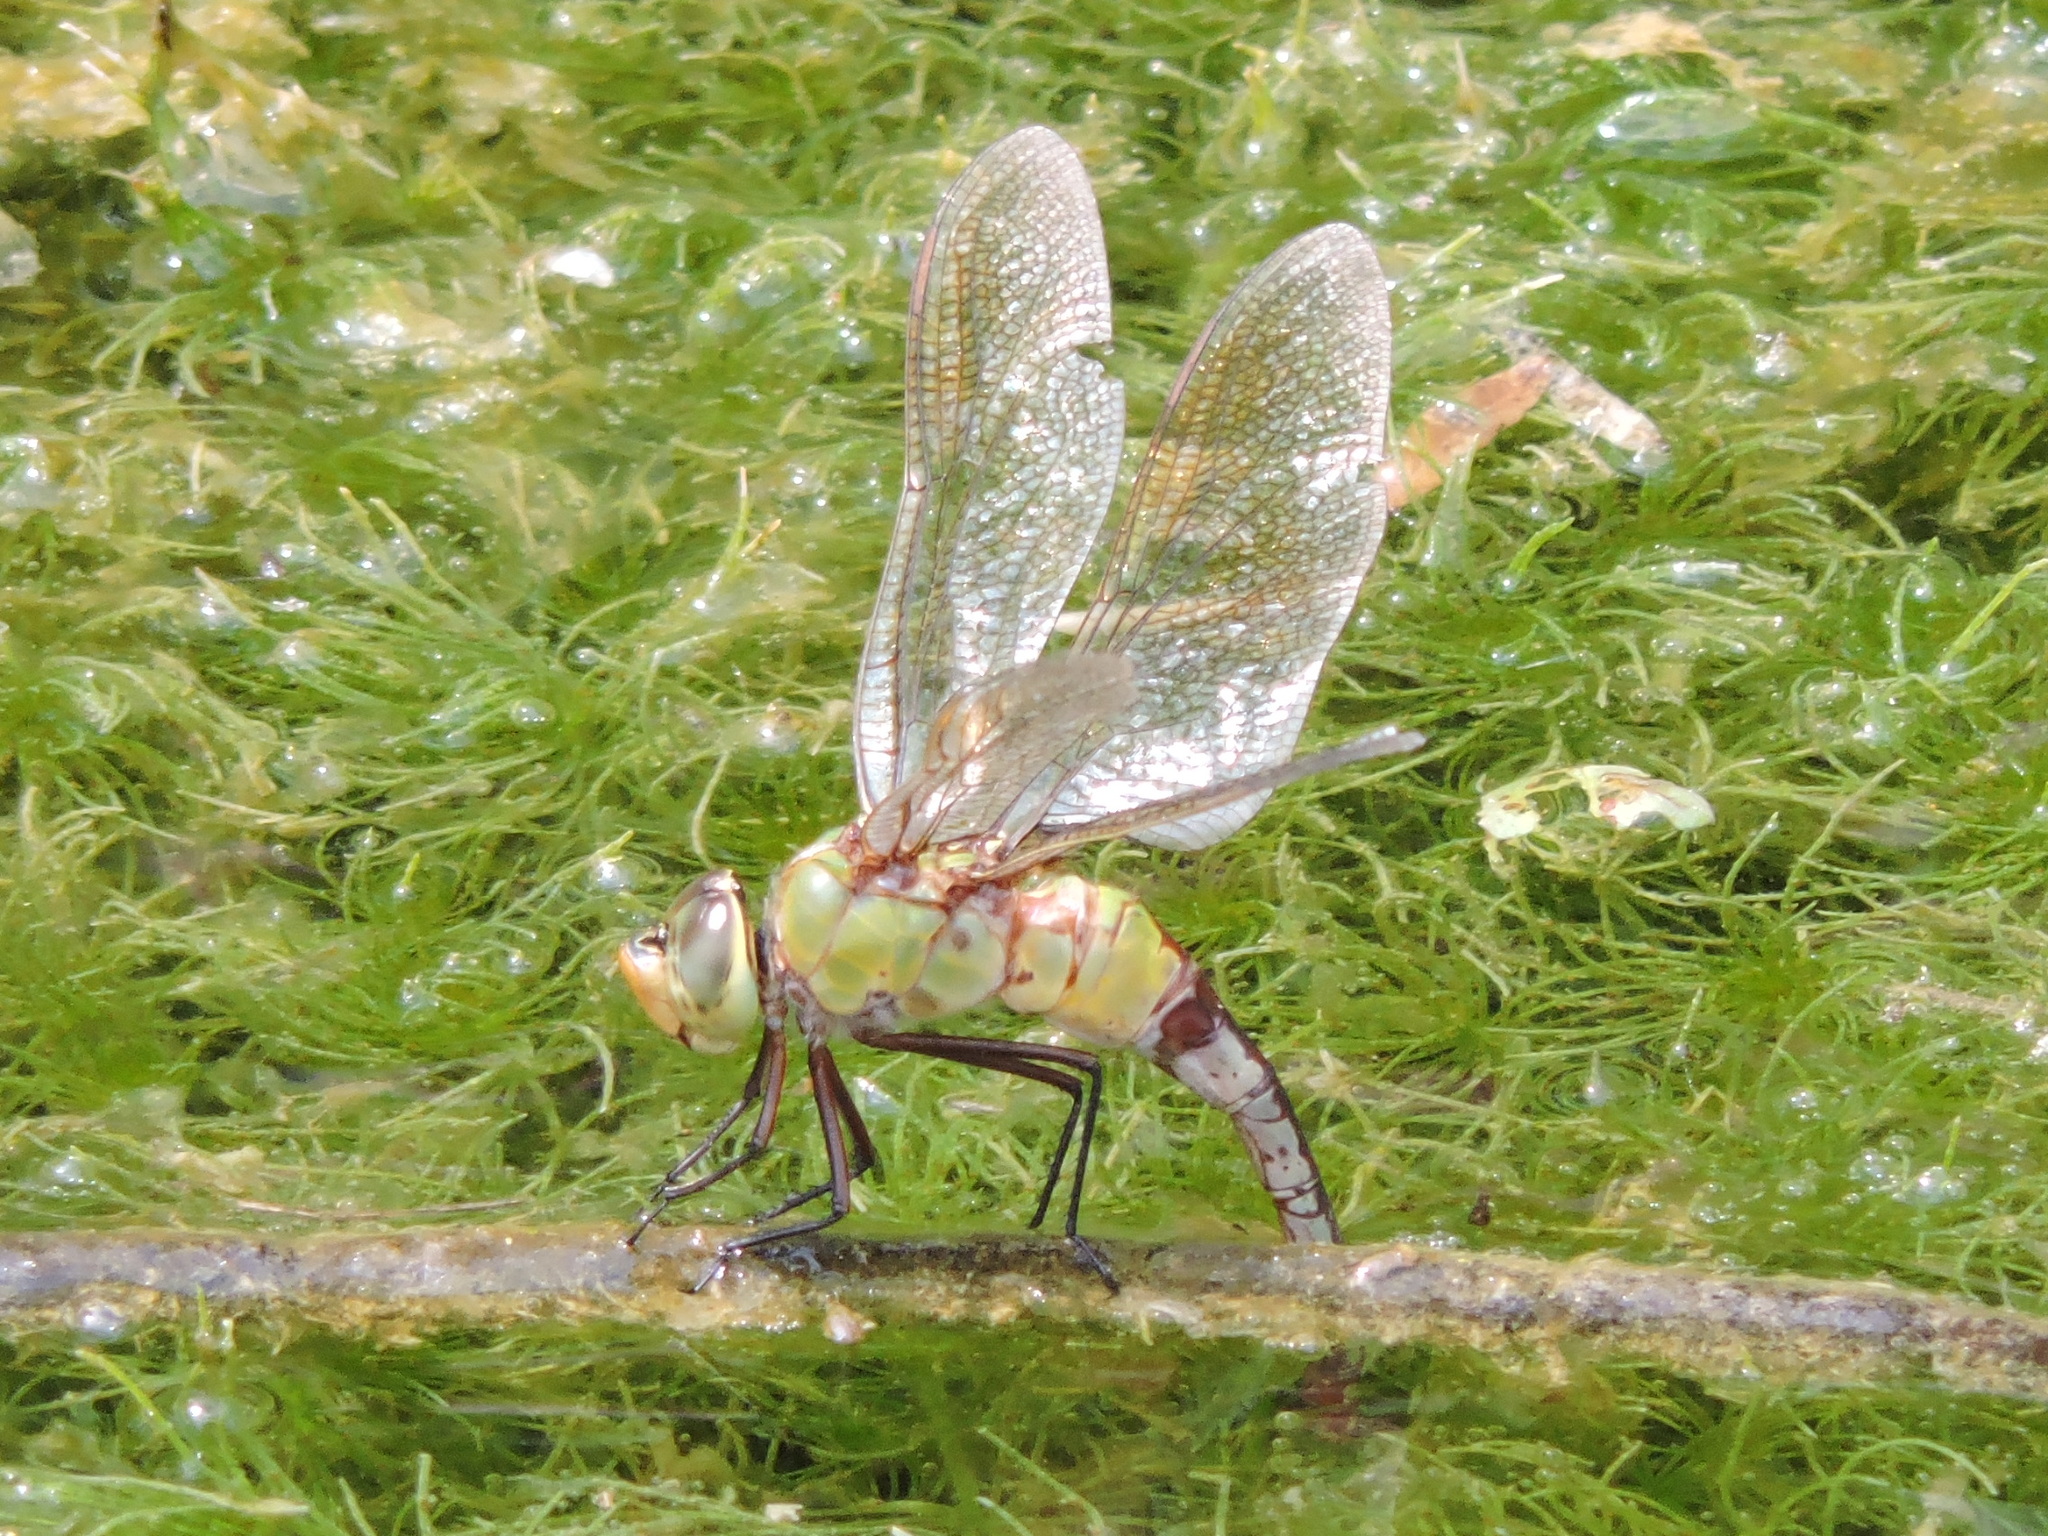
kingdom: Animalia
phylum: Arthropoda
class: Insecta
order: Odonata
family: Aeshnidae
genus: Anax
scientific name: Anax junius
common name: Common green darner
